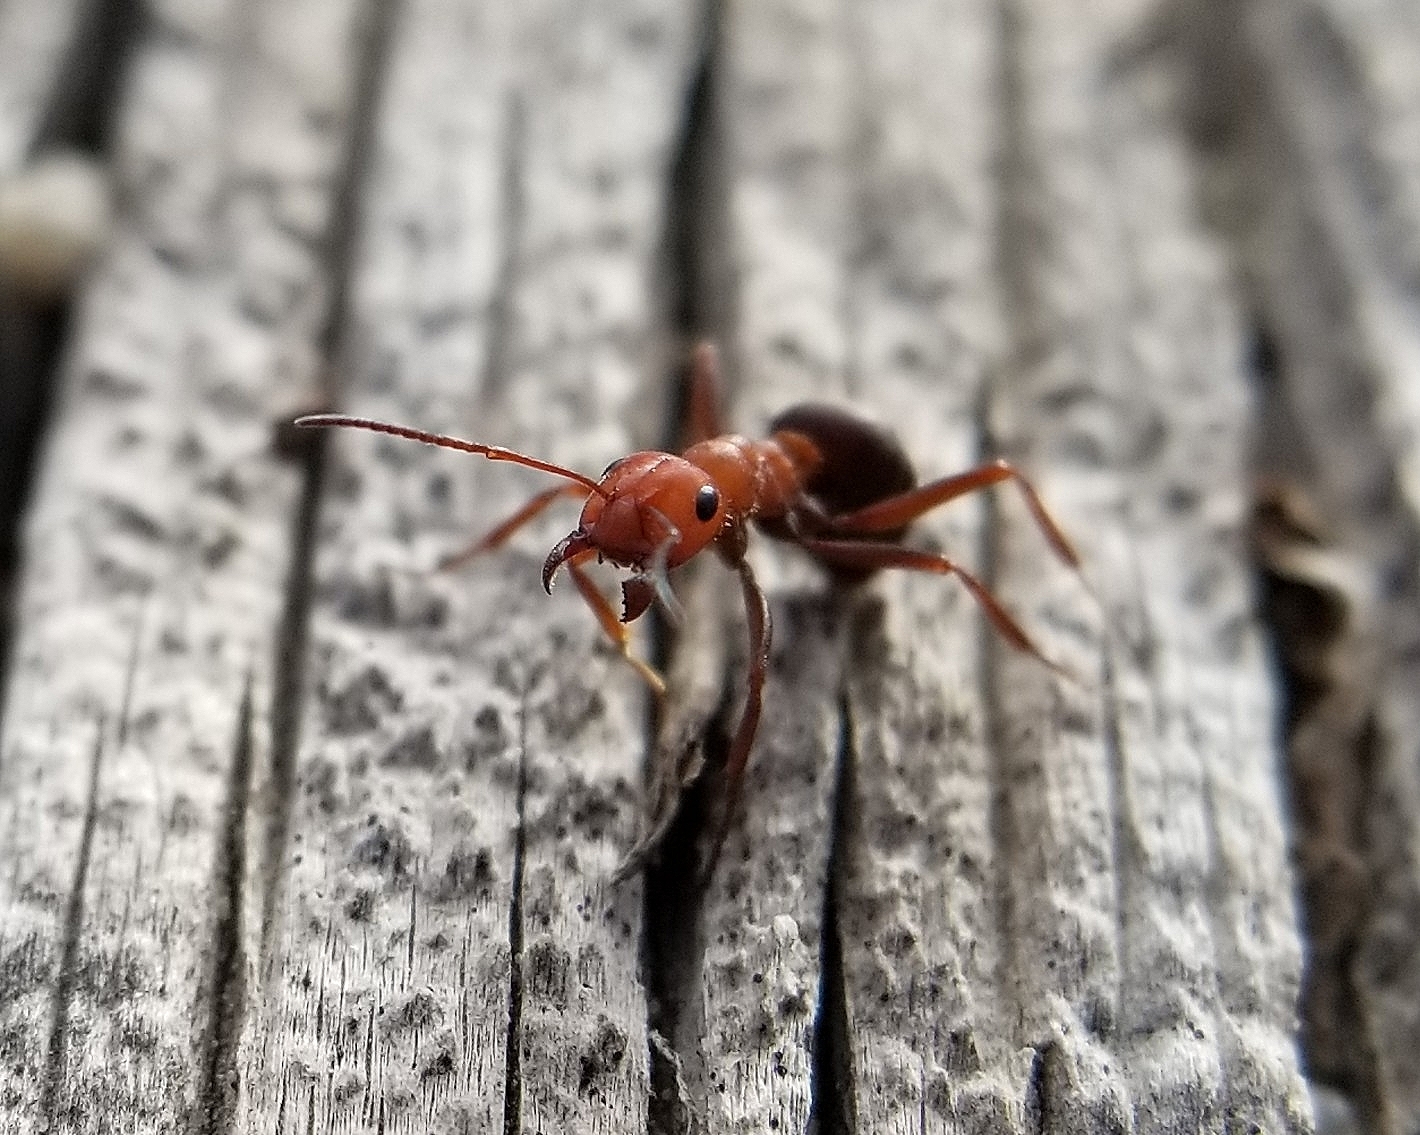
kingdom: Animalia
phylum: Arthropoda
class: Insecta
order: Hymenoptera
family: Formicidae
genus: Formica
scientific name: Formica obscuripes
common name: Western thatching ant
